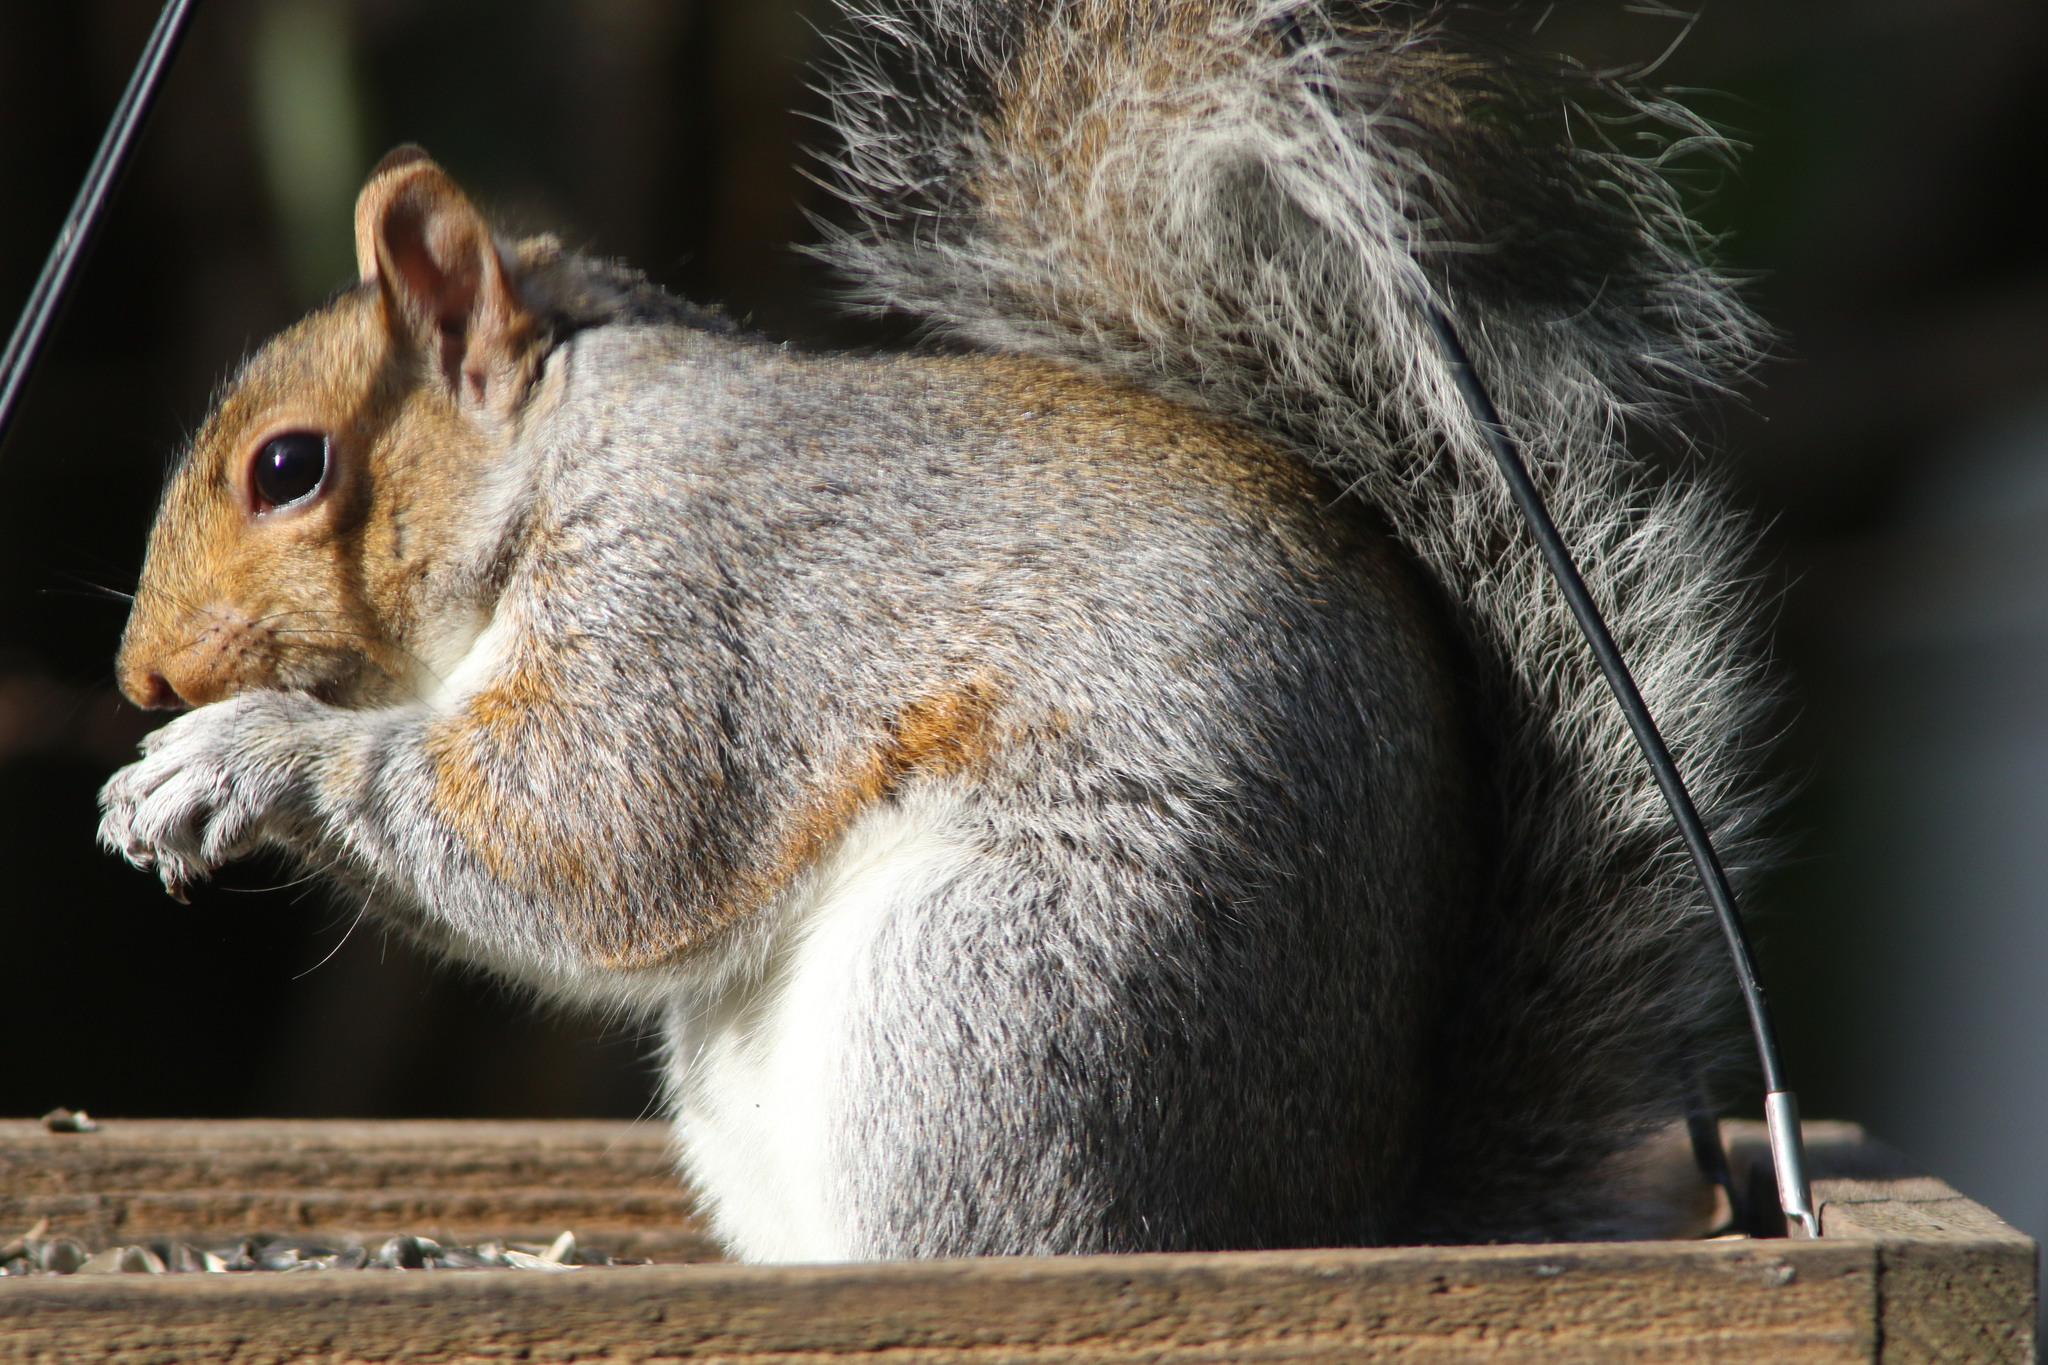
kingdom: Animalia
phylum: Chordata
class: Mammalia
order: Rodentia
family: Sciuridae
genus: Sciurus
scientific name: Sciurus carolinensis
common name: Eastern gray squirrel
